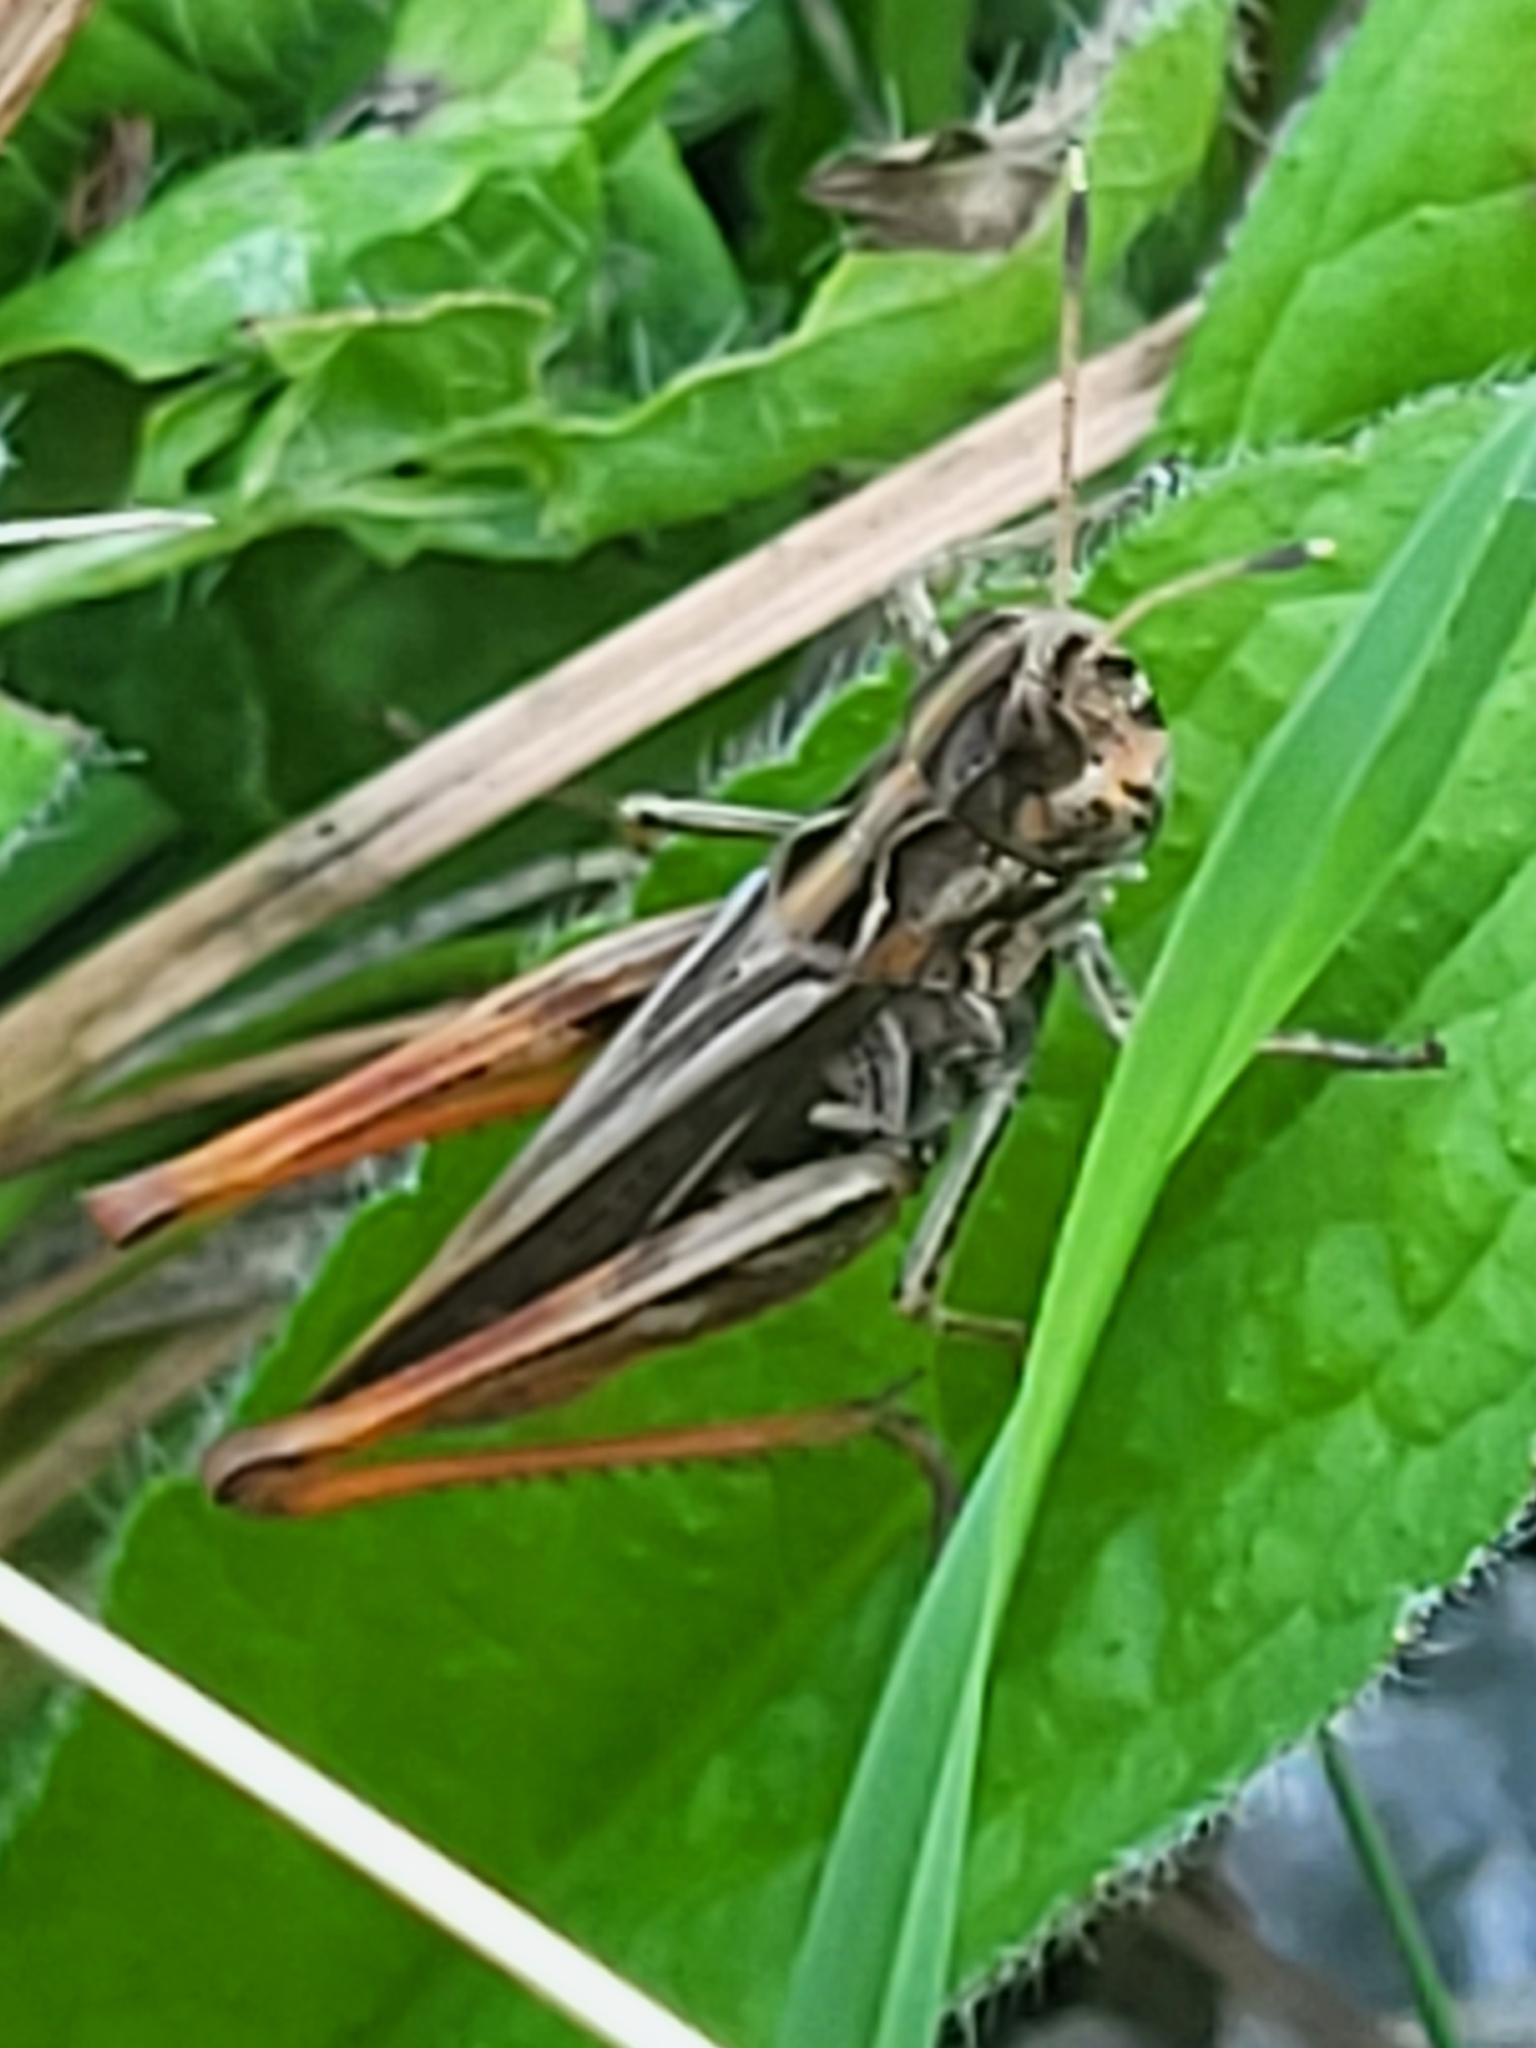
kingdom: Animalia
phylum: Arthropoda
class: Insecta
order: Orthoptera
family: Acrididae
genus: Gomphocerippus
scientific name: Gomphocerippus rufus
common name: Rufous grasshopper
